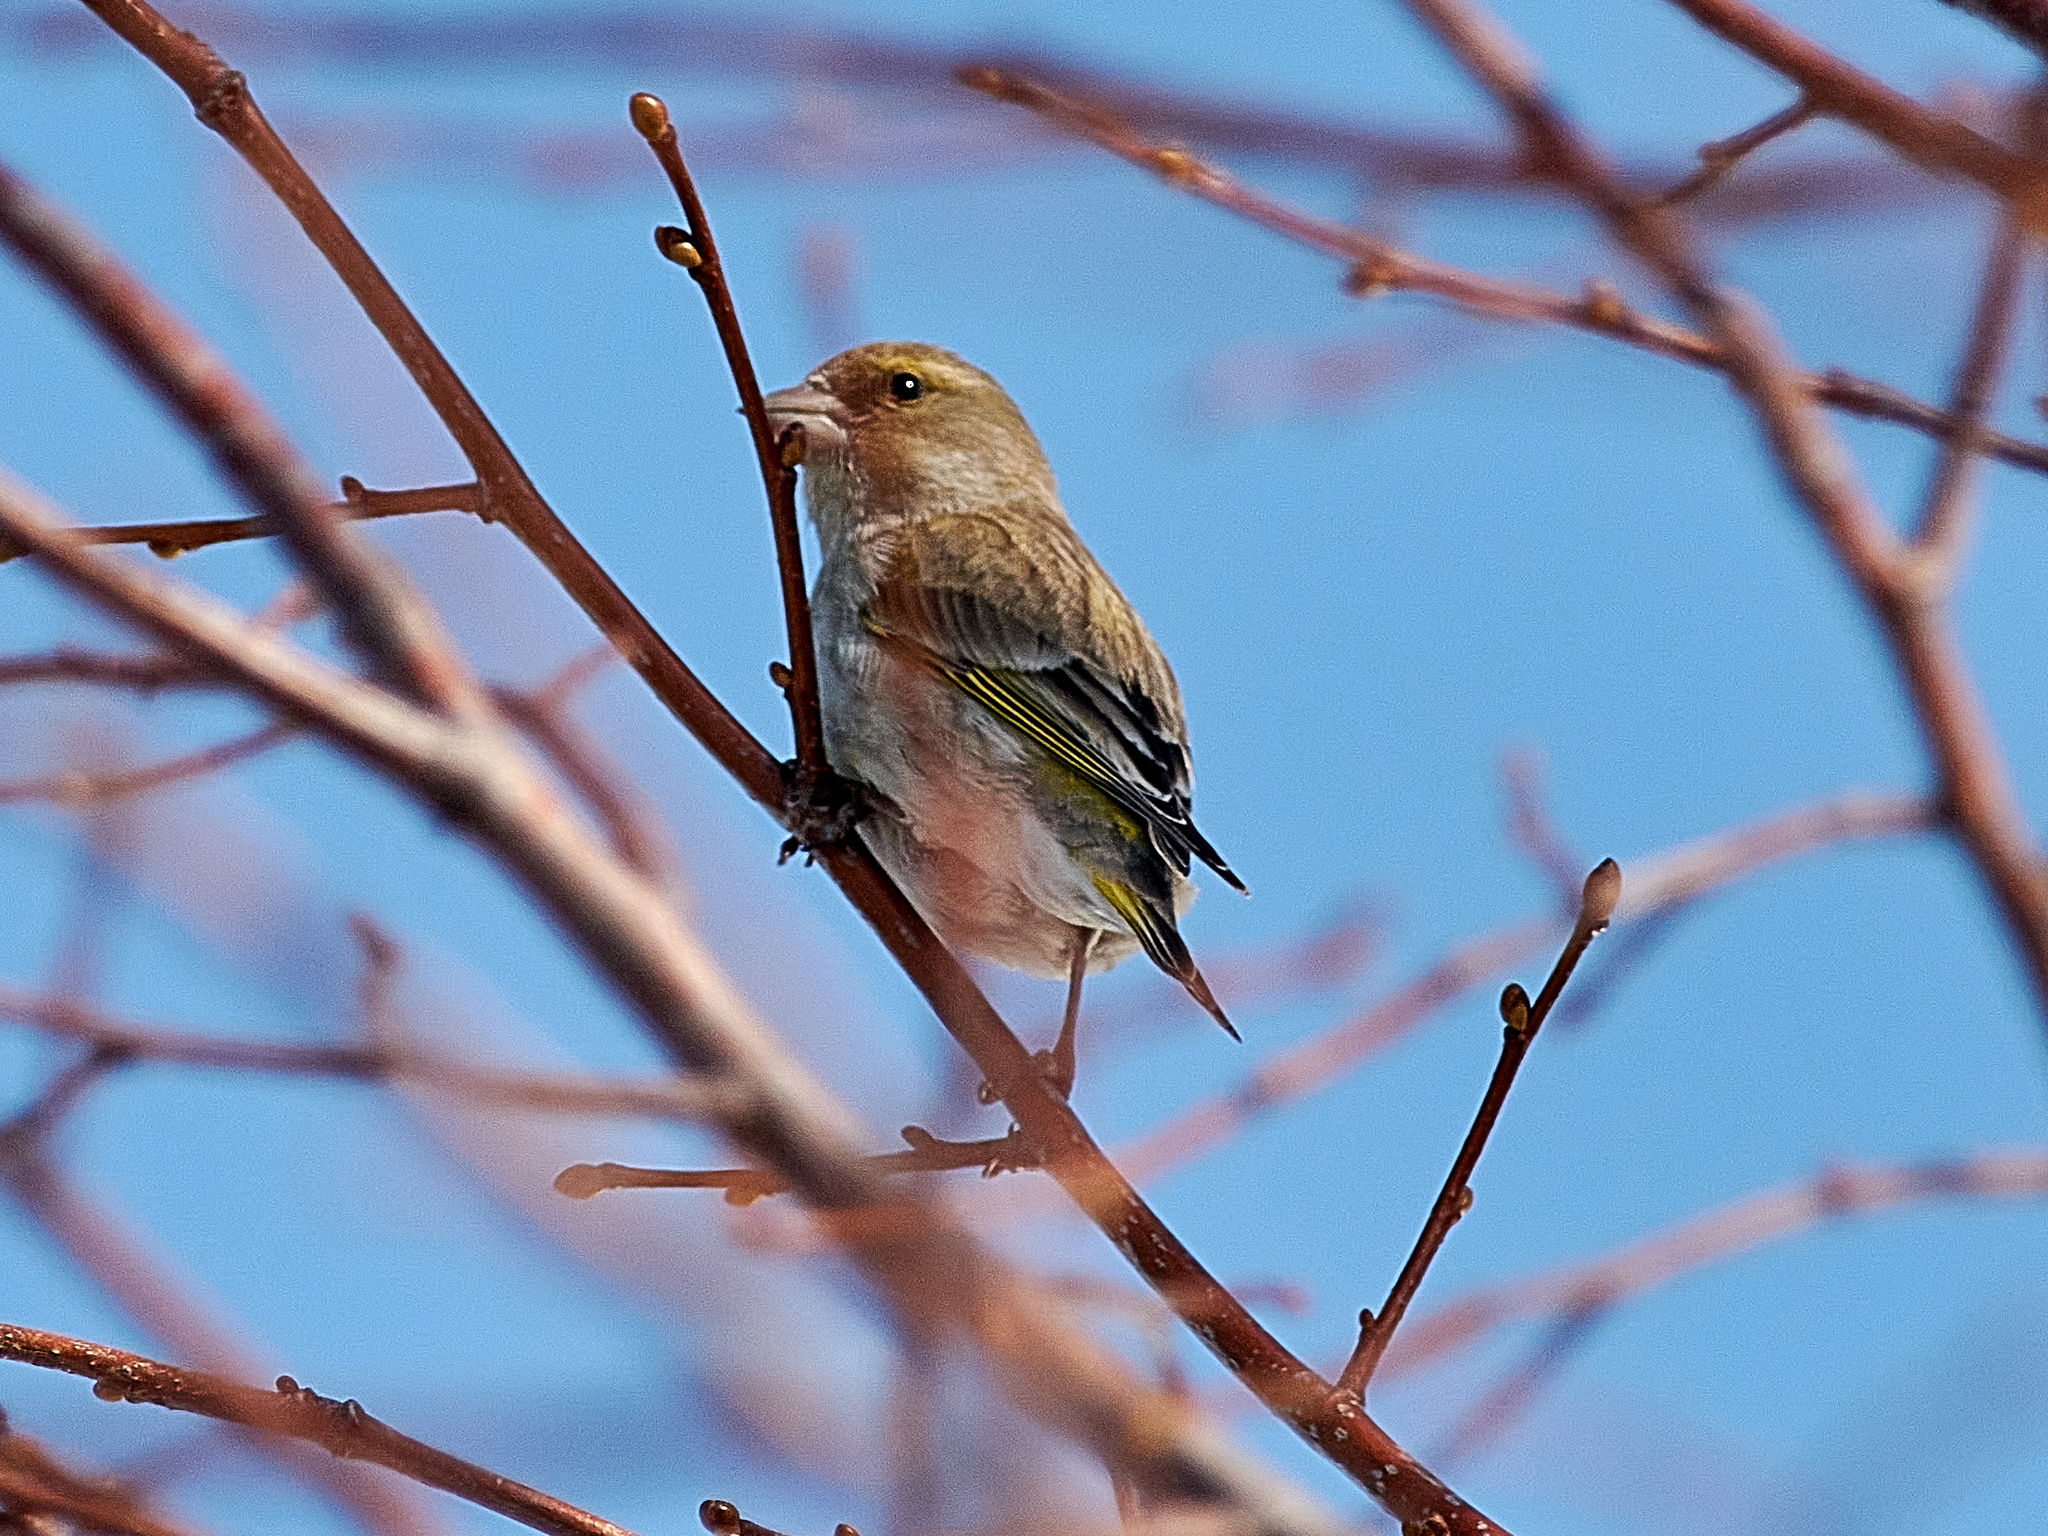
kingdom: Plantae
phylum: Tracheophyta
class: Liliopsida
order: Poales
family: Poaceae
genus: Chloris
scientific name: Chloris chloris
